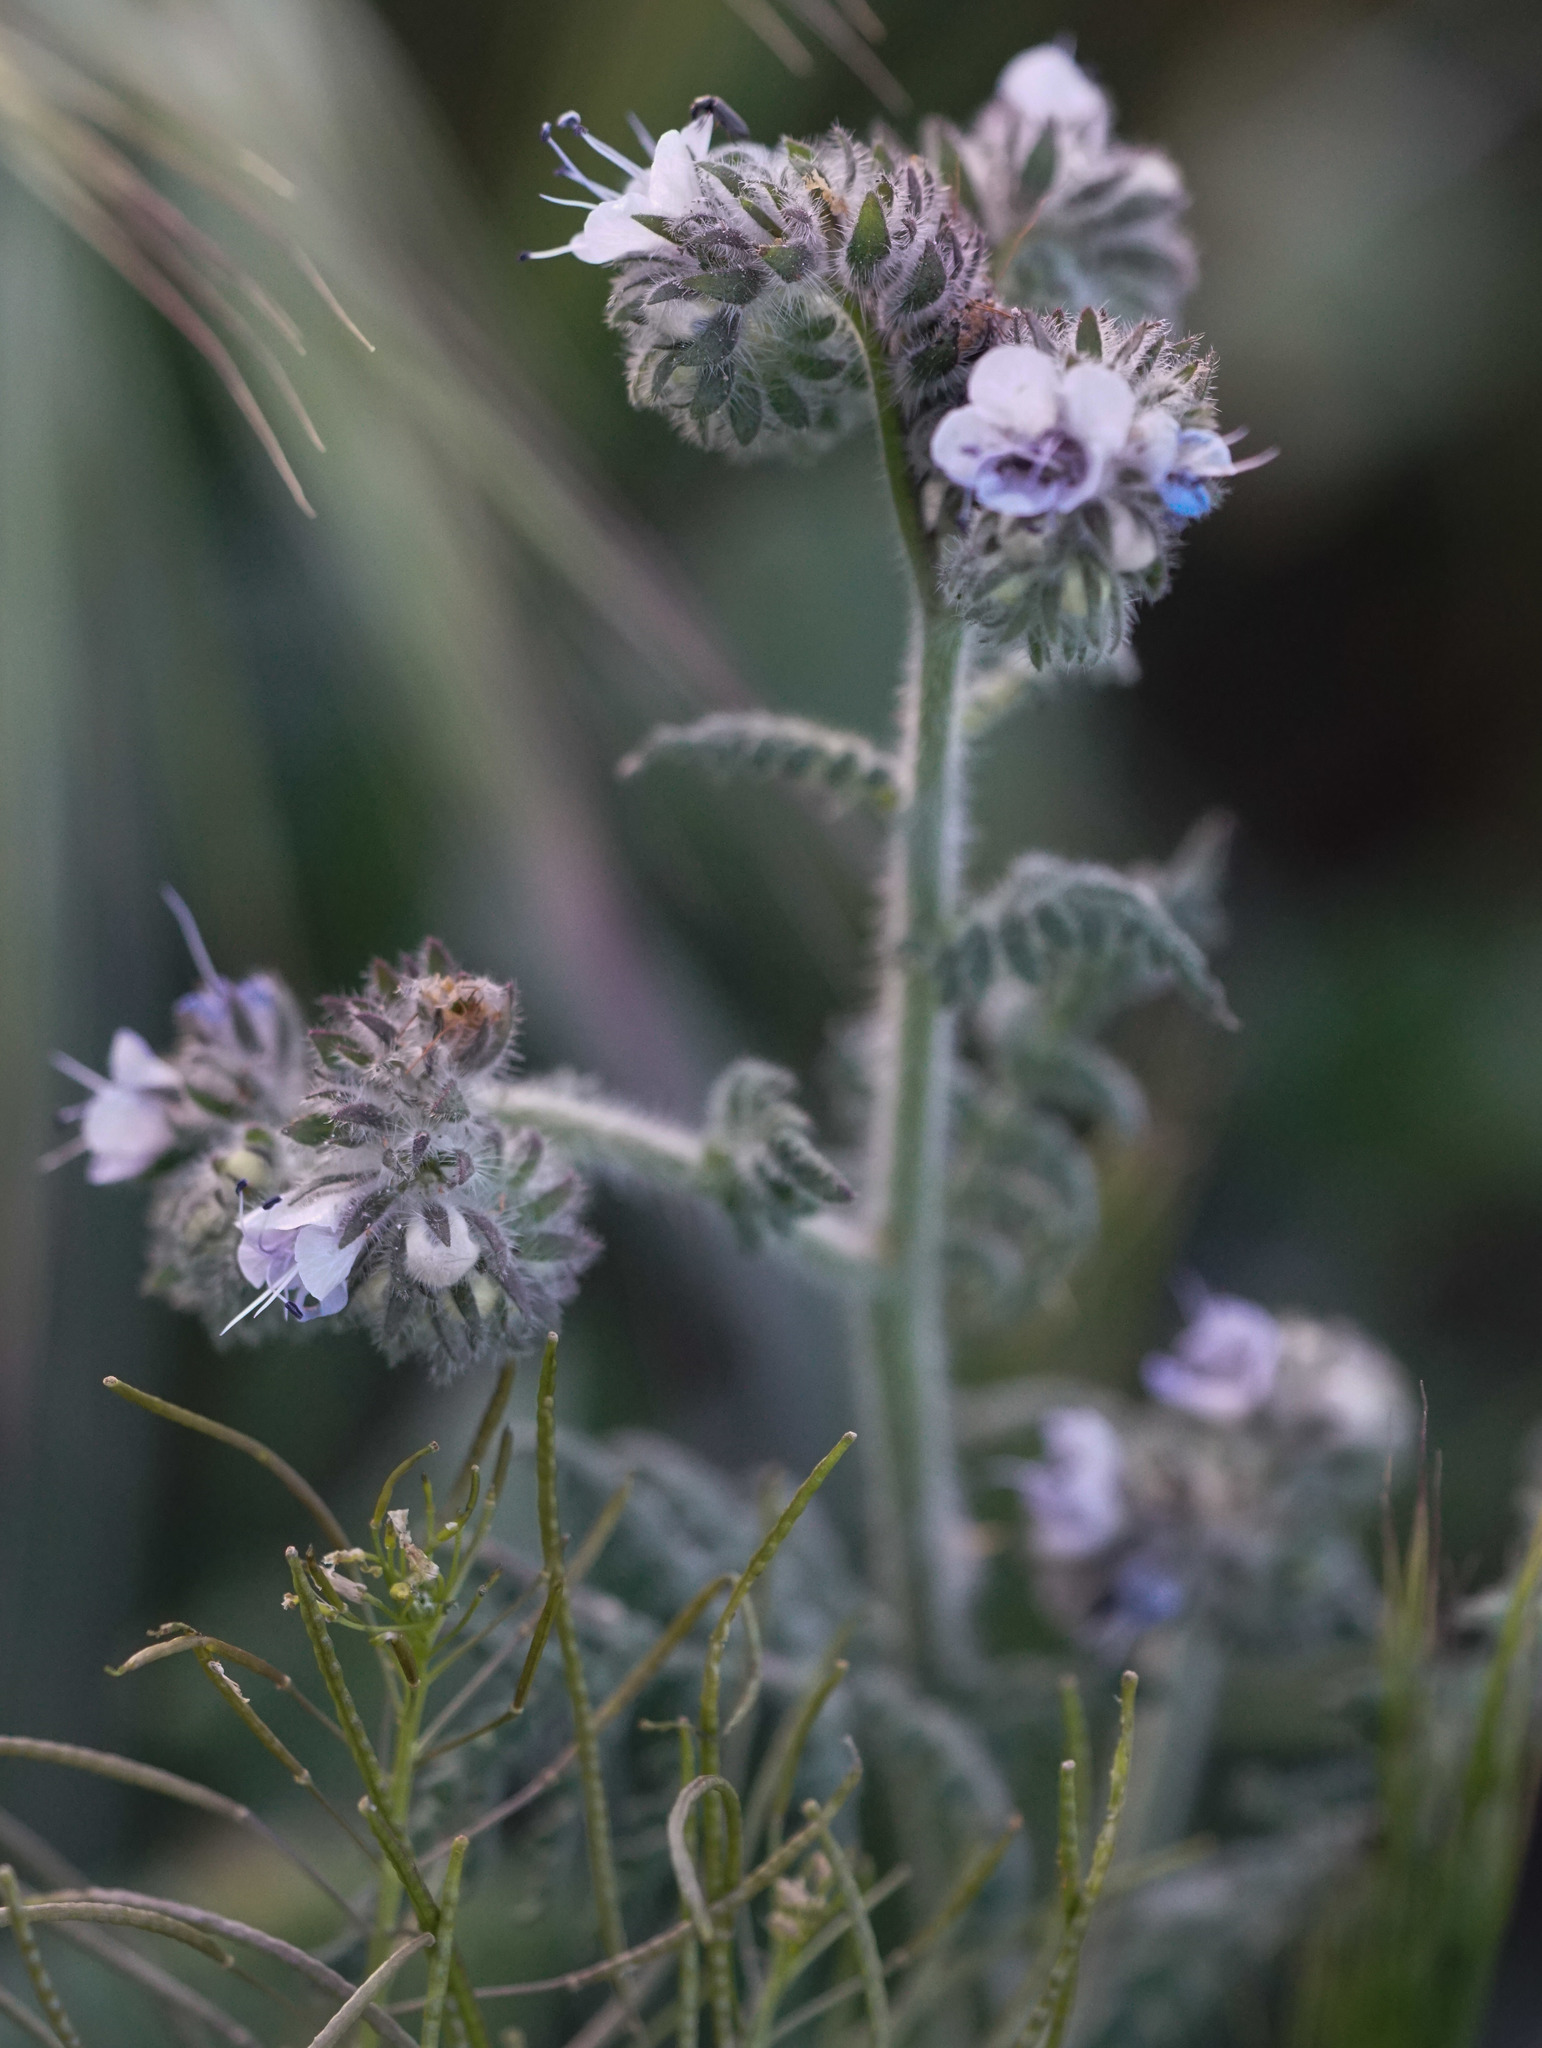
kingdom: Plantae
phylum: Tracheophyta
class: Magnoliopsida
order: Boraginales
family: Hydrophyllaceae
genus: Phacelia
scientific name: Phacelia distans
